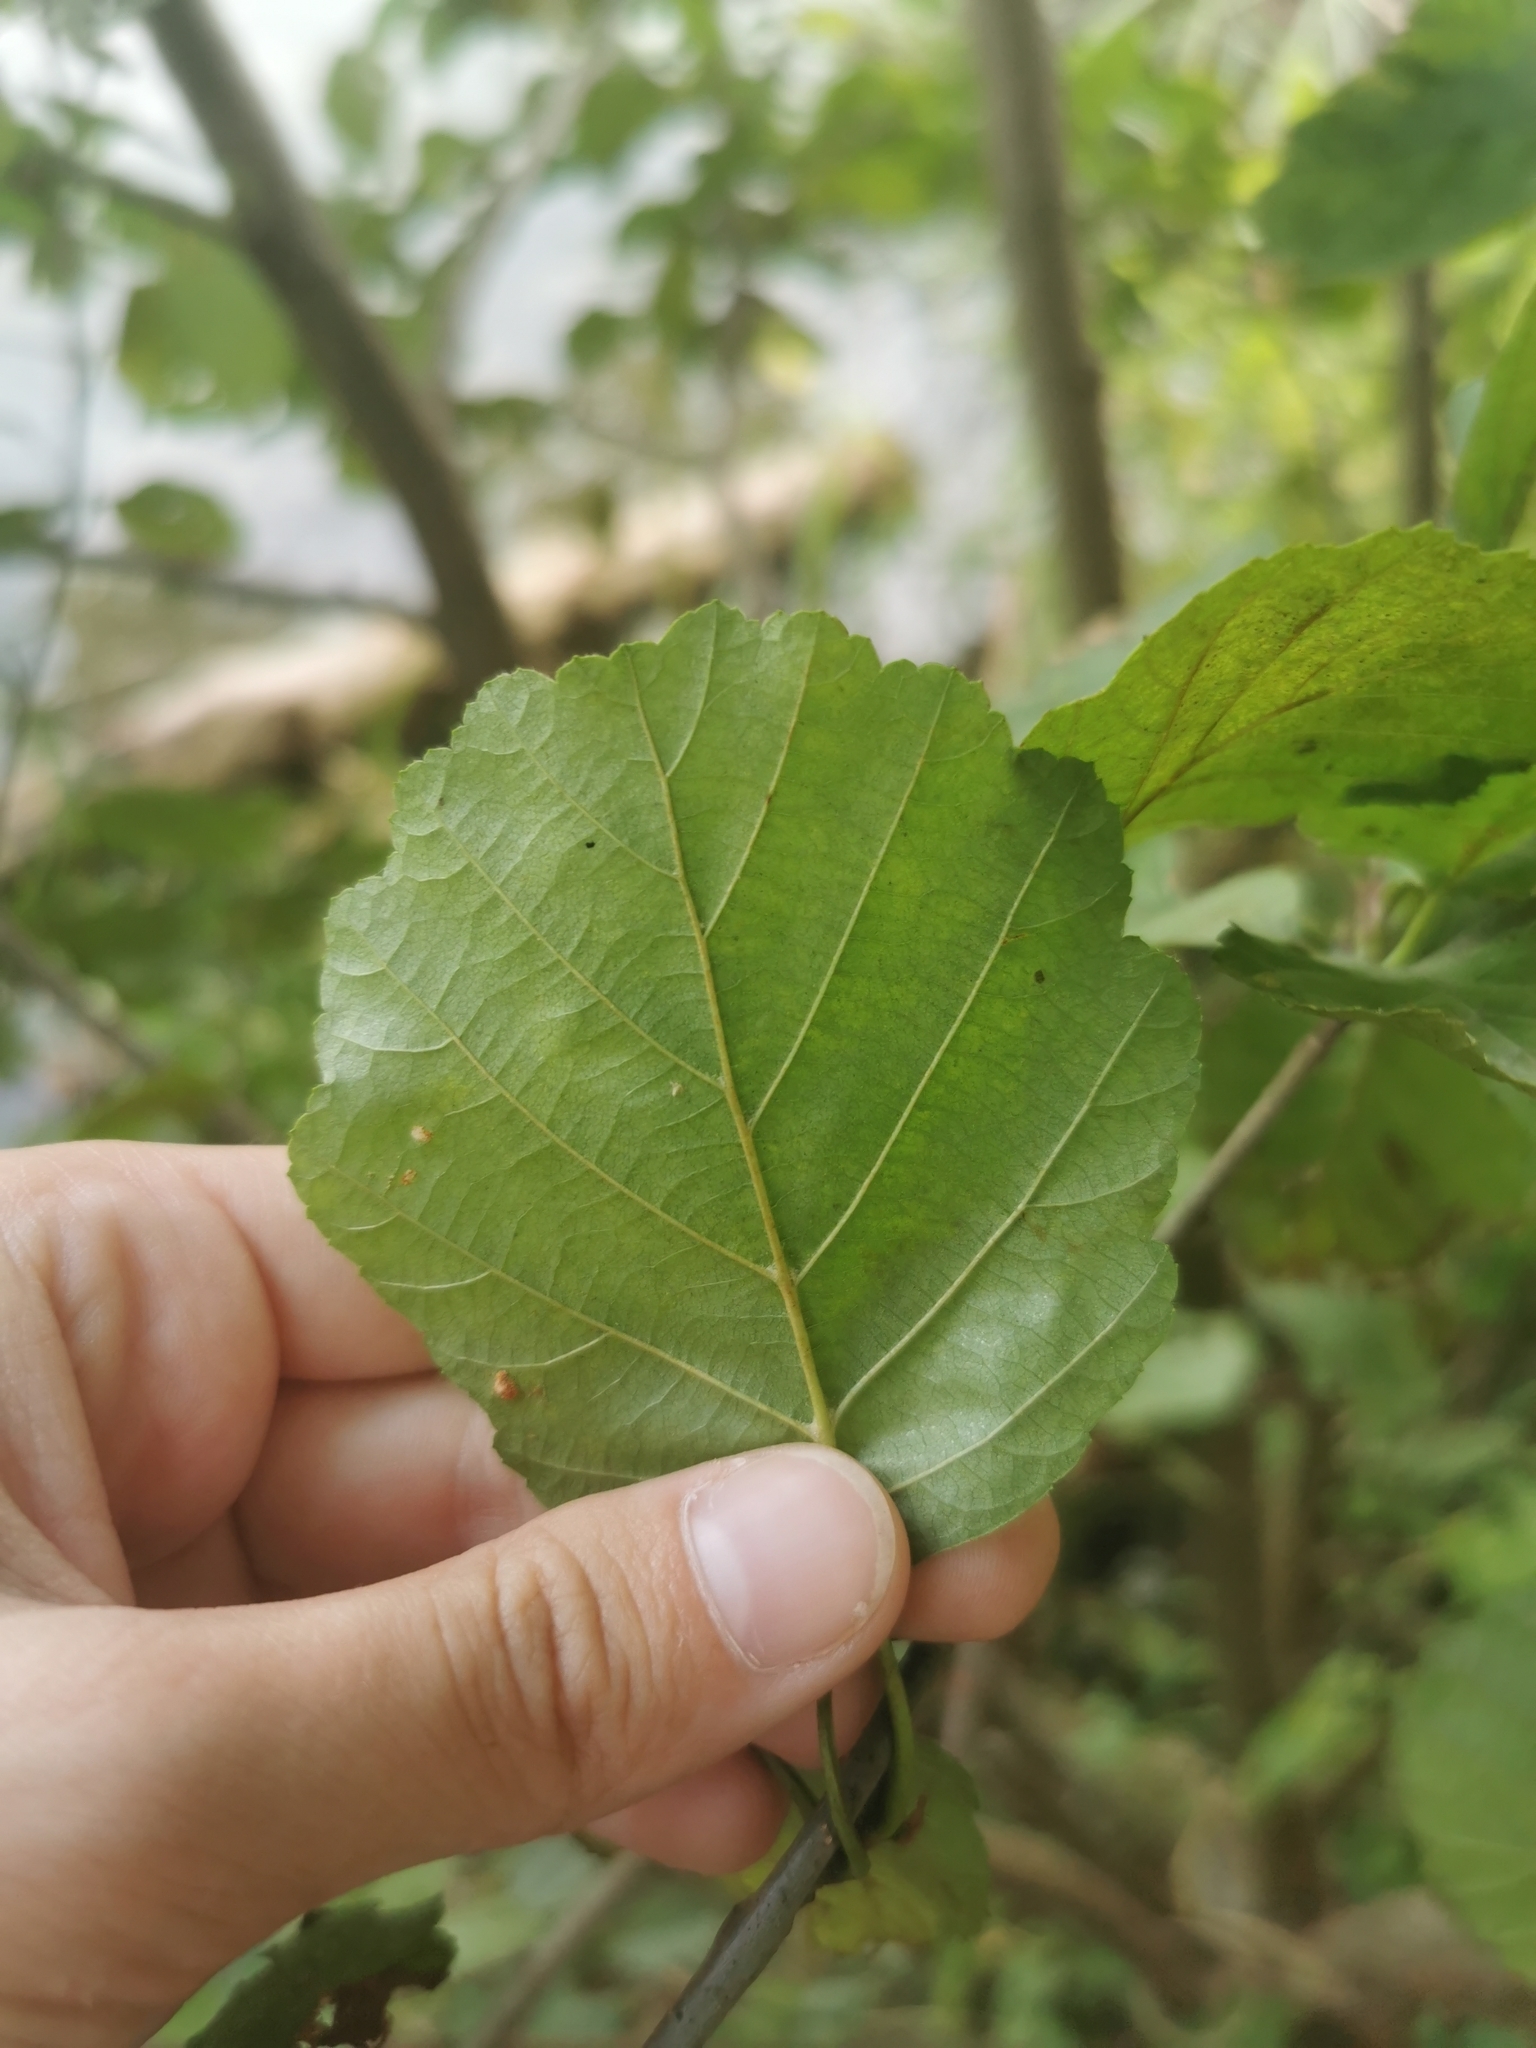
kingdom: Plantae
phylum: Tracheophyta
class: Magnoliopsida
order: Fagales
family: Betulaceae
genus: Alnus
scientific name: Alnus glutinosa
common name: Black alder
